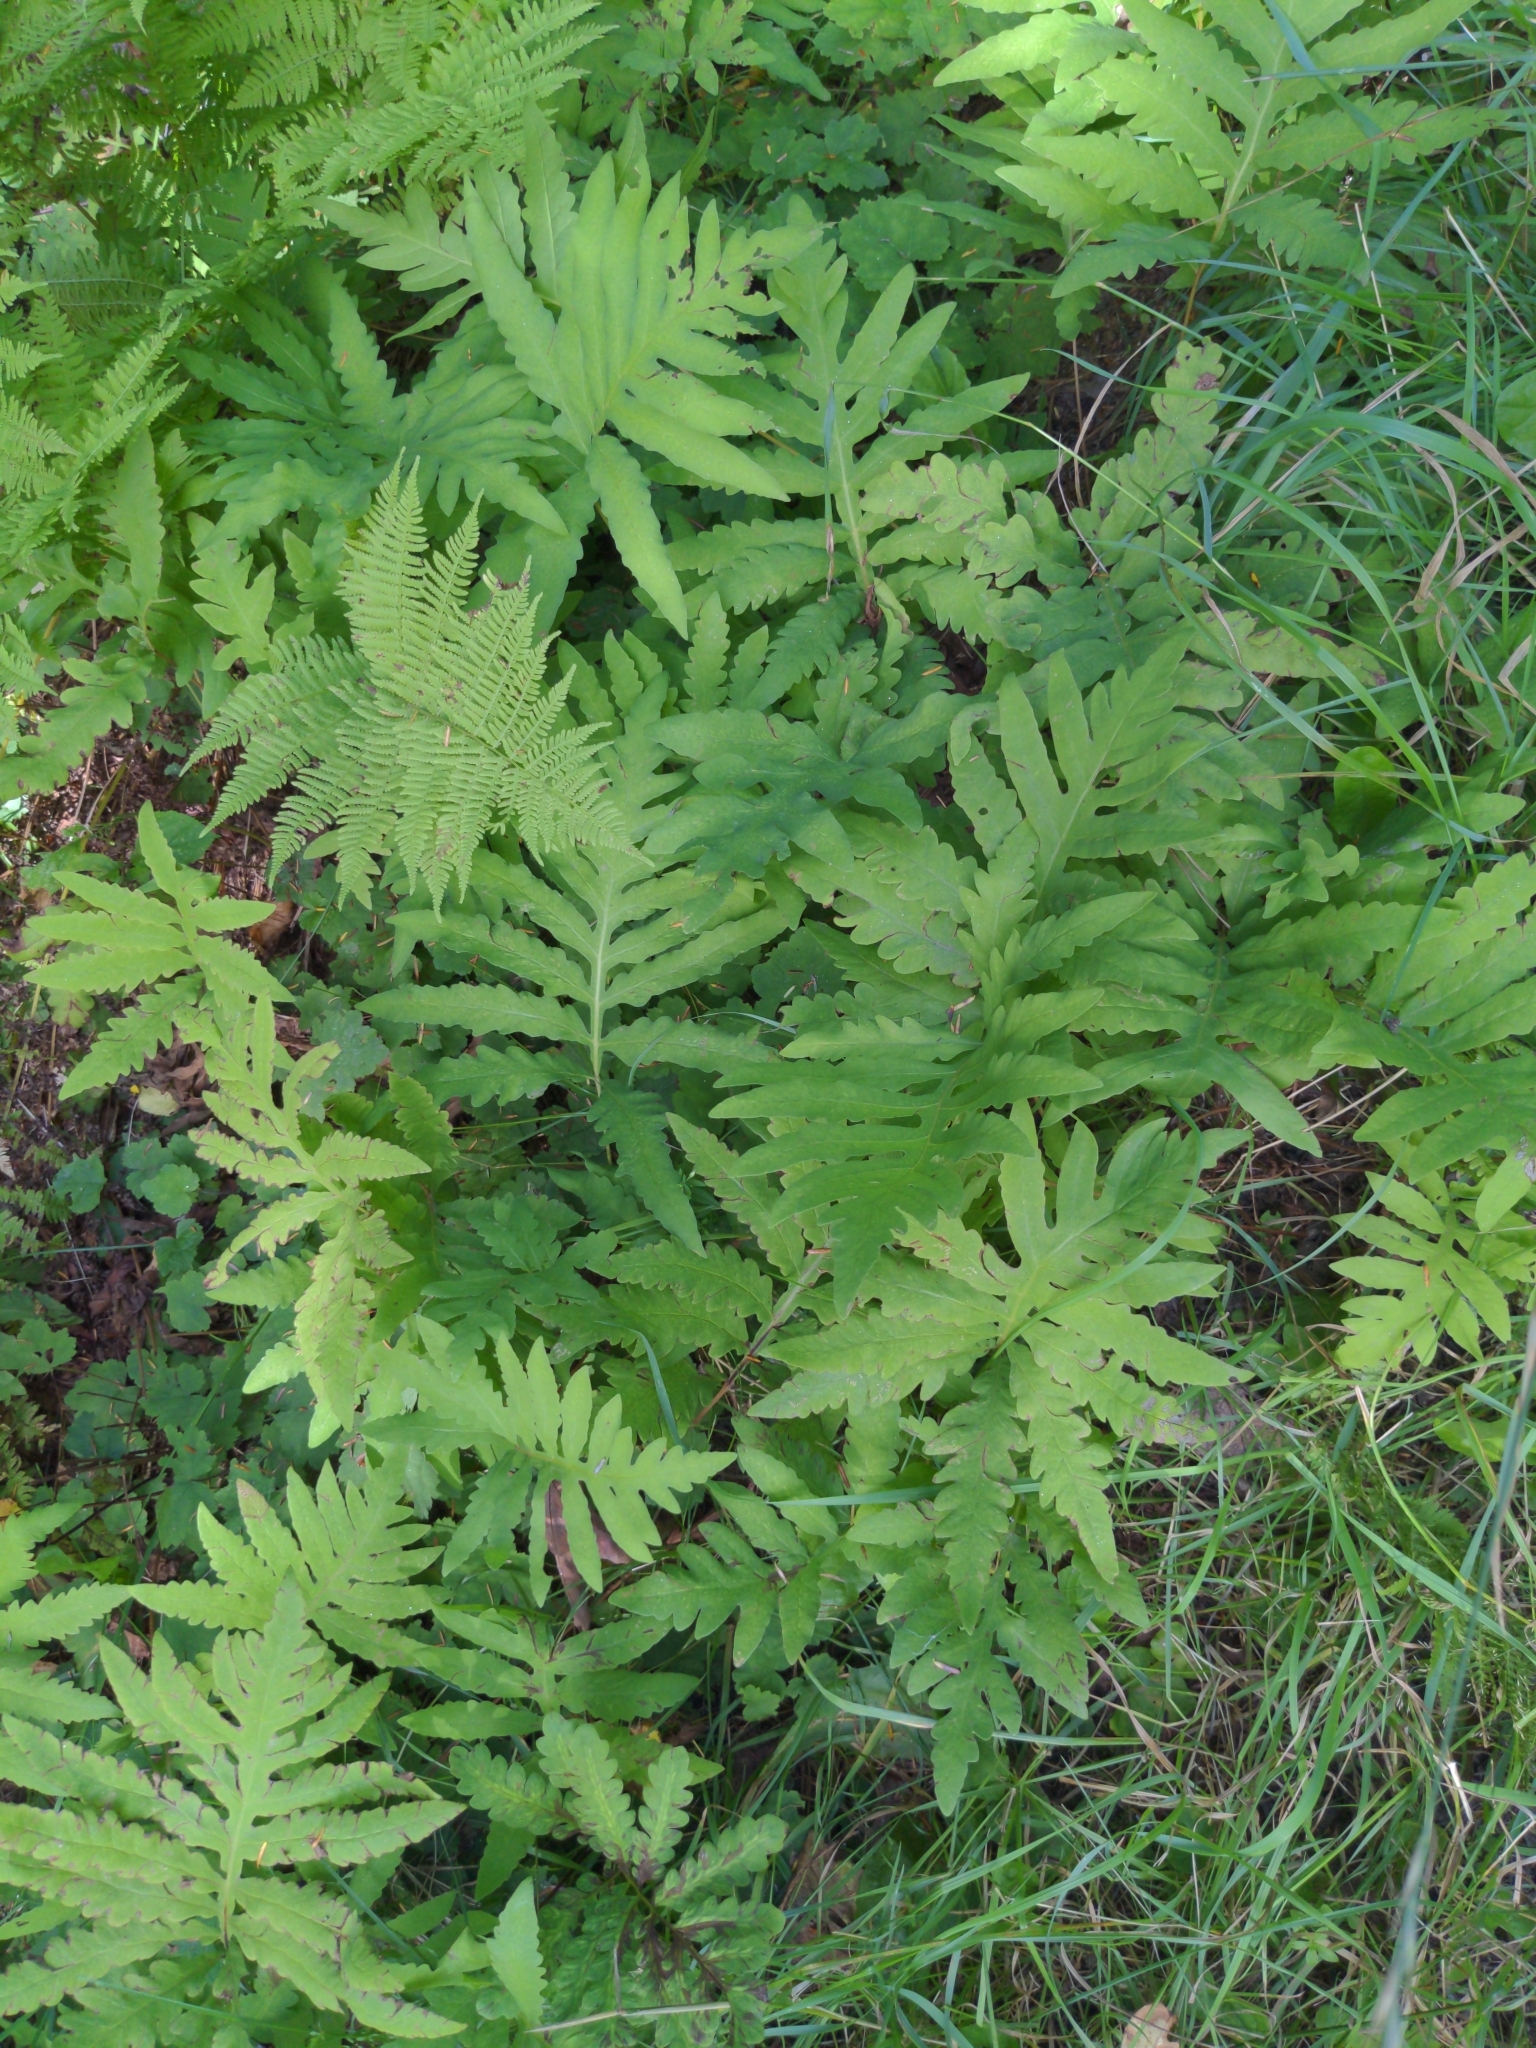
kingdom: Plantae
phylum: Tracheophyta
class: Polypodiopsida
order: Polypodiales
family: Onocleaceae
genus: Onoclea
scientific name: Onoclea sensibilis
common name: Sensitive fern
